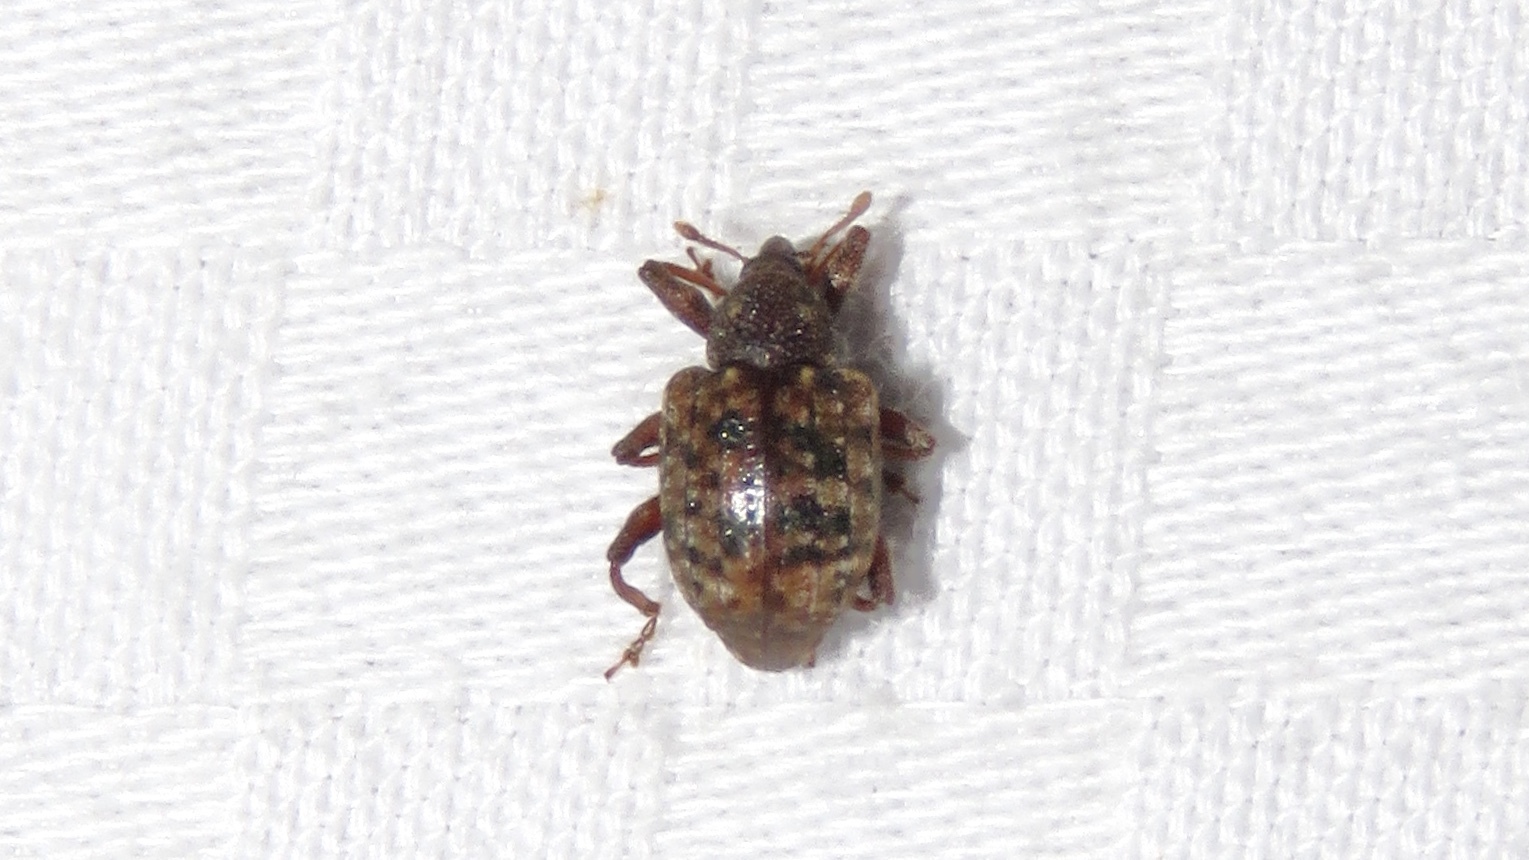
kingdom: Animalia
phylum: Arthropoda
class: Insecta
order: Coleoptera
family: Curculionidae
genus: Conotrachelus
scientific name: Conotrachelus geminatus
